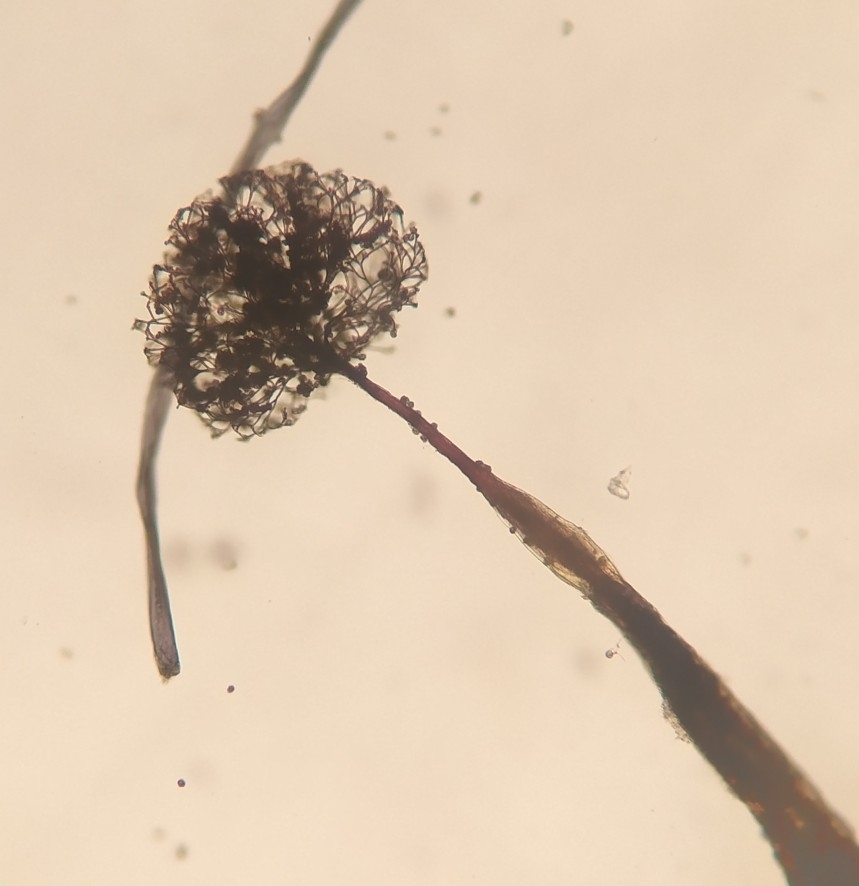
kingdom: Protozoa
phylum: Mycetozoa
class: Myxomycetes
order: Echinosteliales
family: Clastodermataceae
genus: Clastoderma
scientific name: Clastoderma debaryanum
